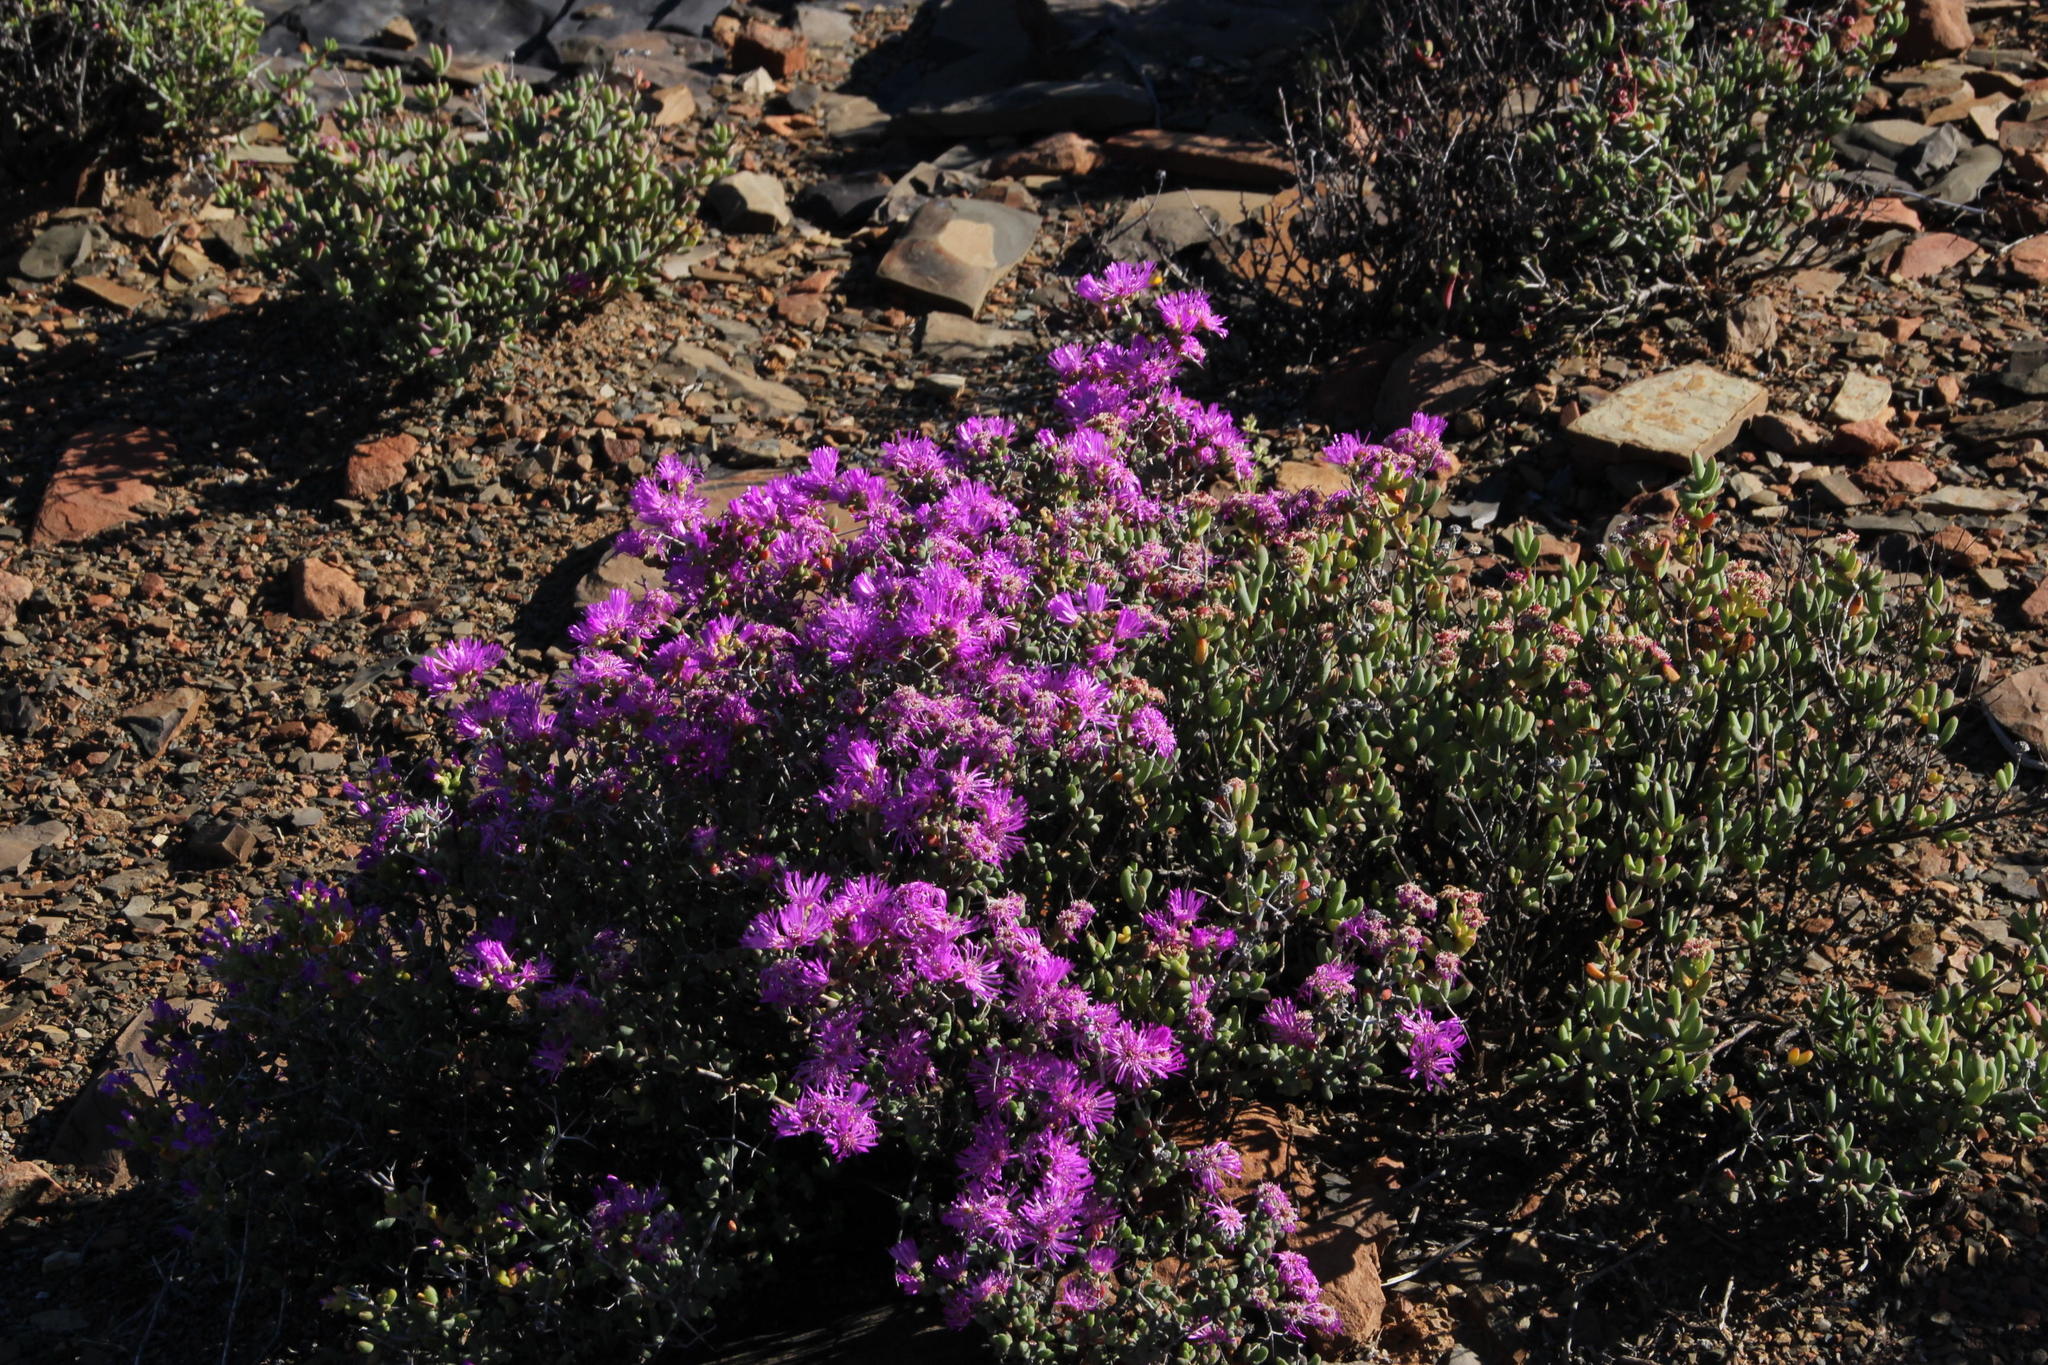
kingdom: Plantae
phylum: Tracheophyta
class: Magnoliopsida
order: Caryophyllales
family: Aizoaceae
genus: Ruschia
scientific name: Ruschia cradockensis
